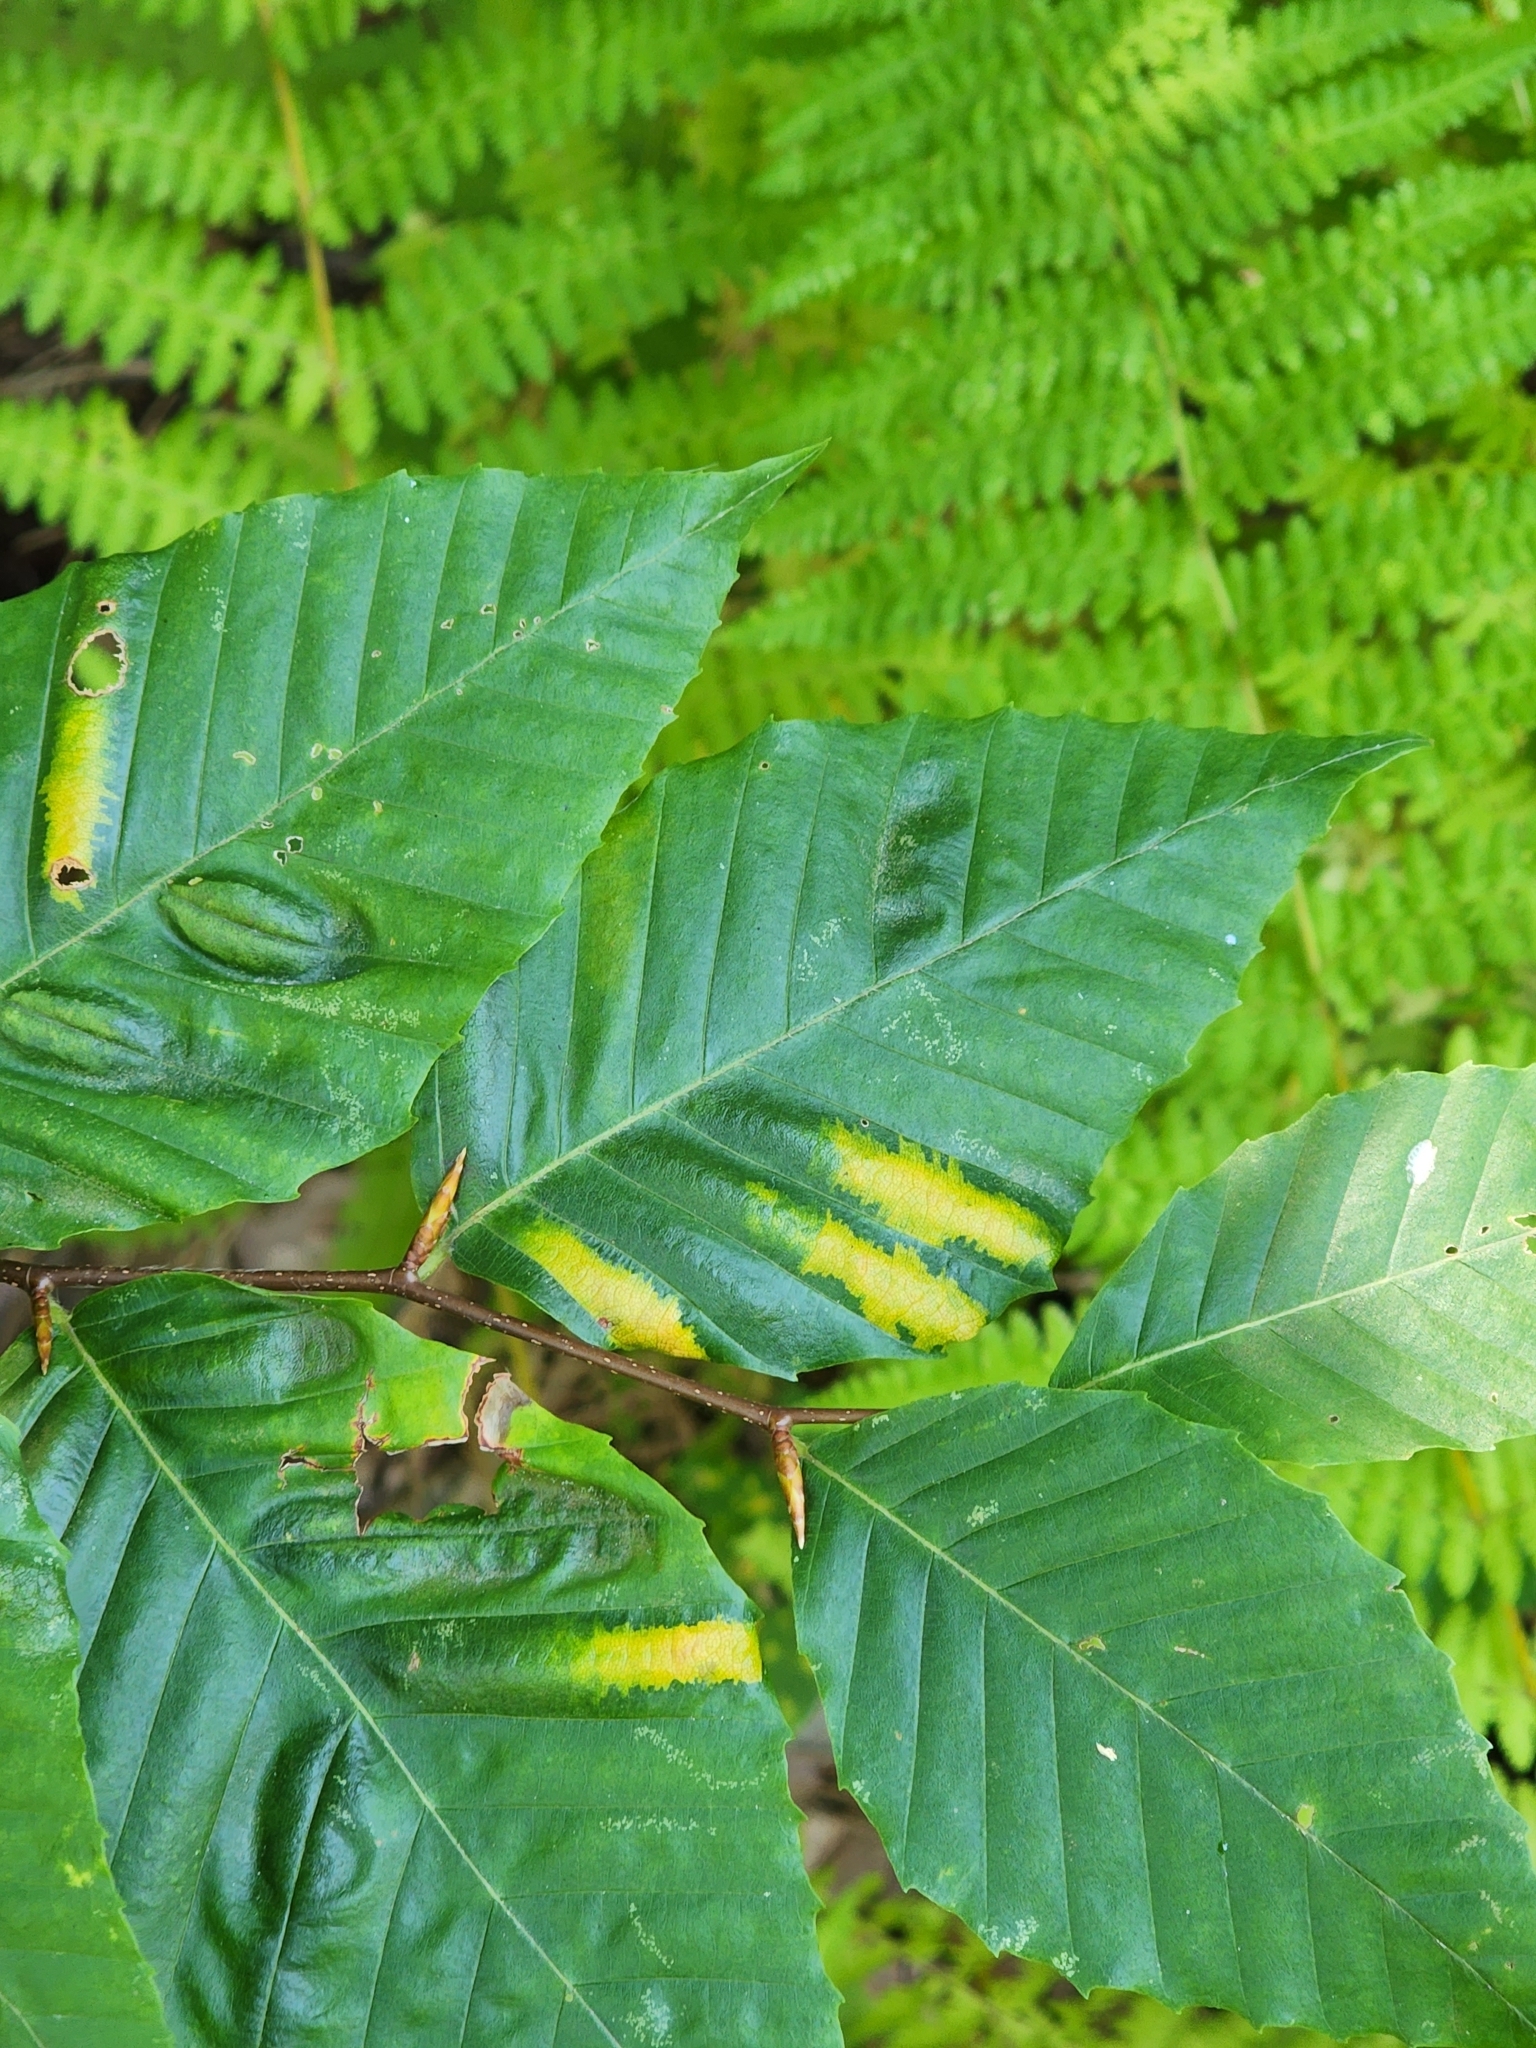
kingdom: Plantae
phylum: Tracheophyta
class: Magnoliopsida
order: Fagales
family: Fagaceae
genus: Fagus
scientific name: Fagus grandifolia
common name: American beech
